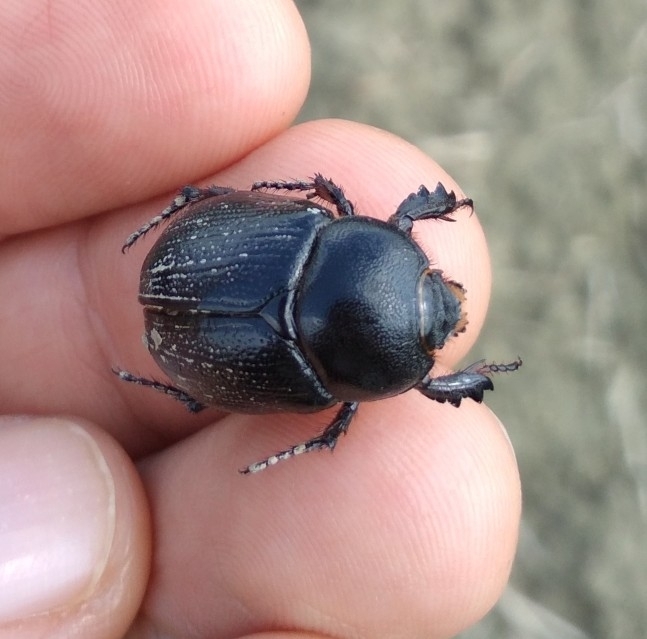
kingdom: Animalia
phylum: Arthropoda
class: Insecta
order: Coleoptera
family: Scarabaeidae
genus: Pentodon
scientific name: Pentodon bidens
